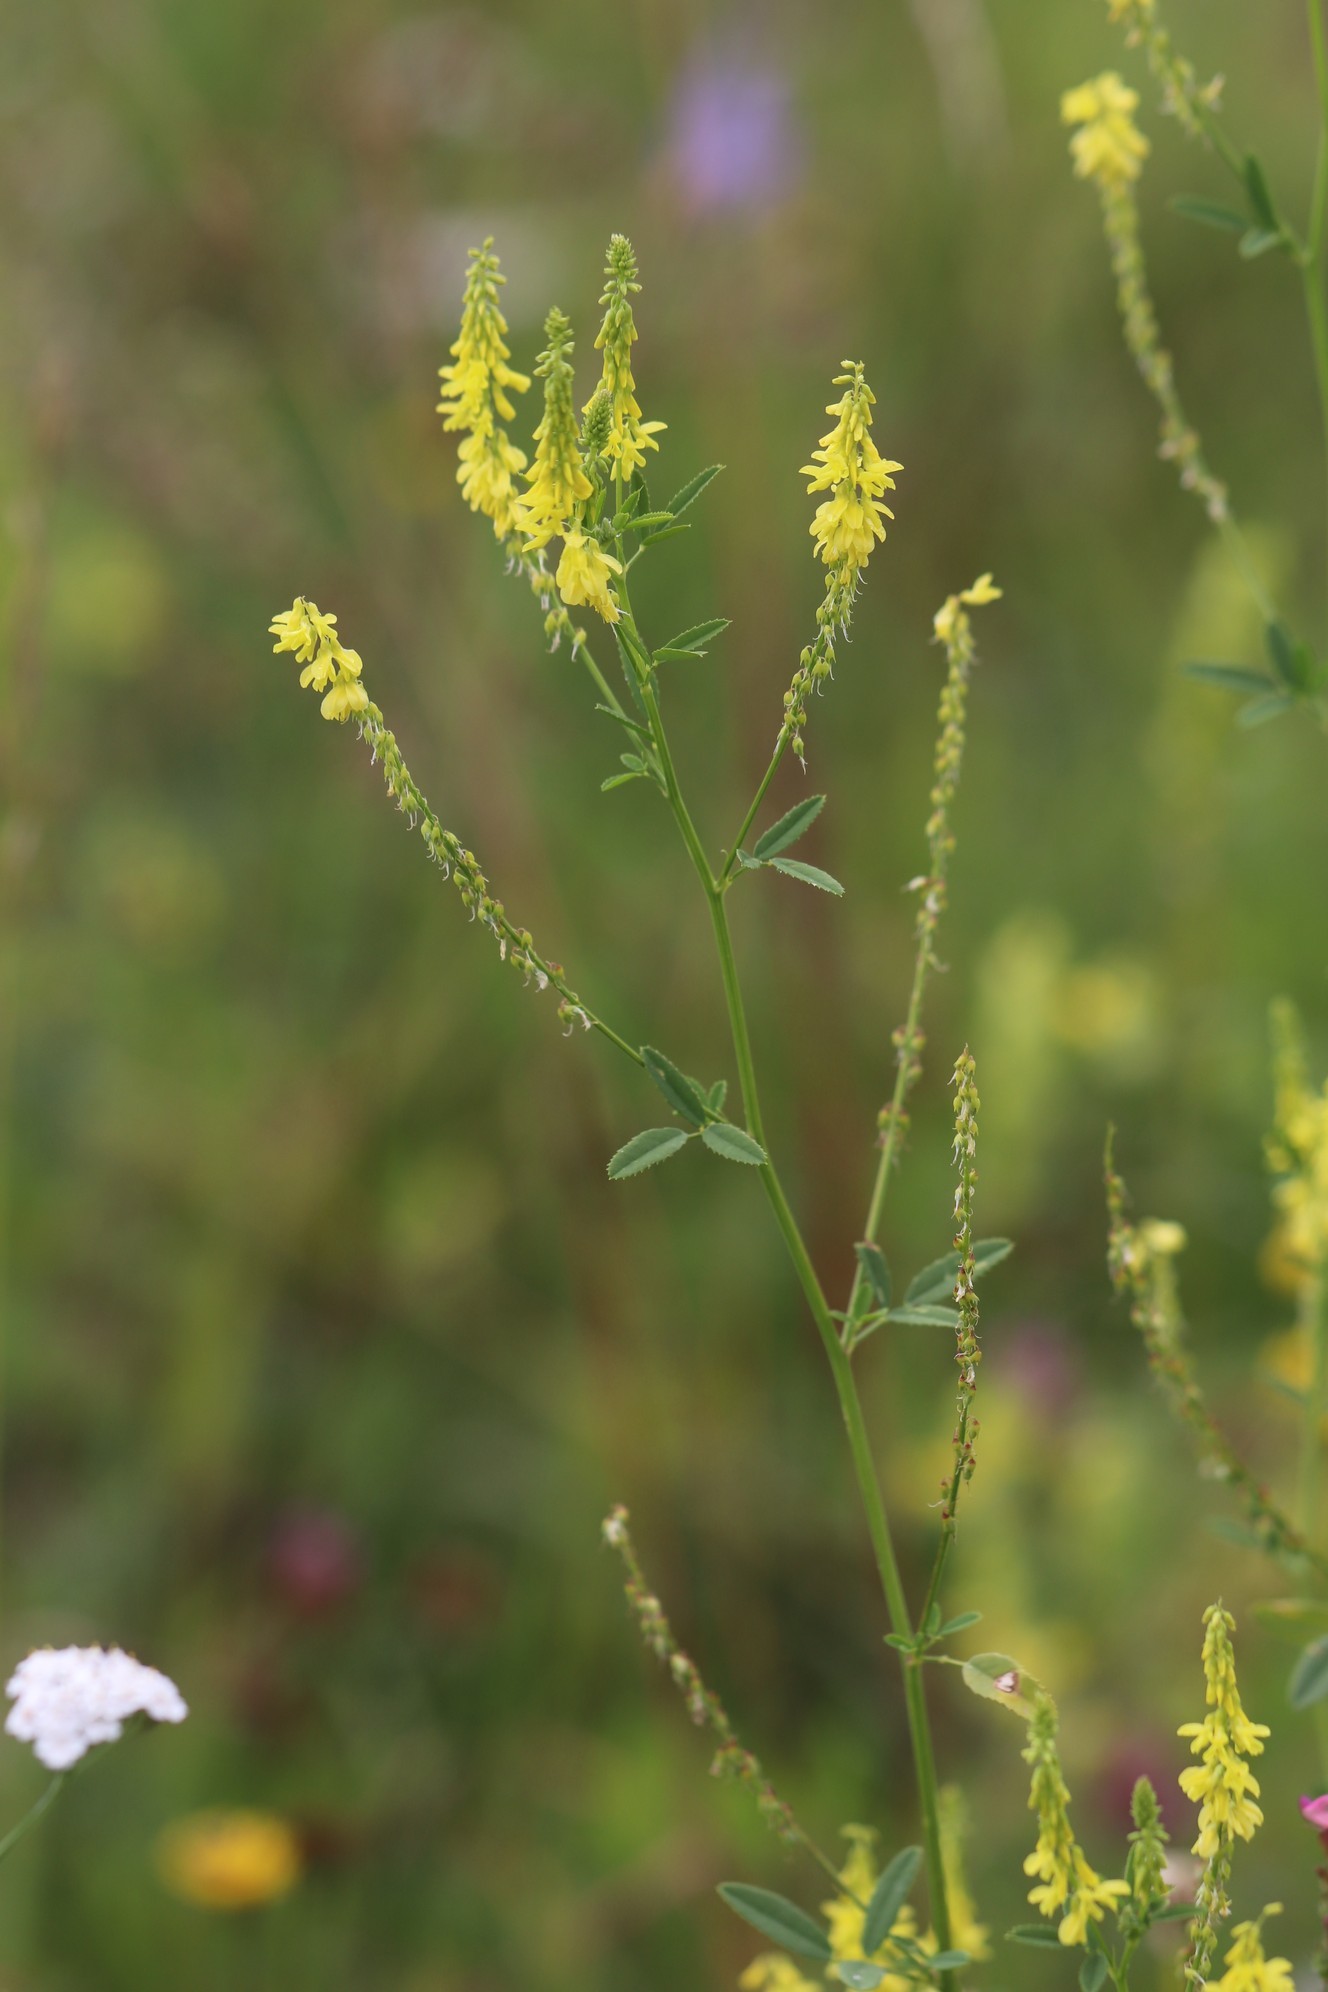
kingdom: Plantae
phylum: Tracheophyta
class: Magnoliopsida
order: Fabales
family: Fabaceae
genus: Melilotus
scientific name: Melilotus officinalis
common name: Sweetclover
